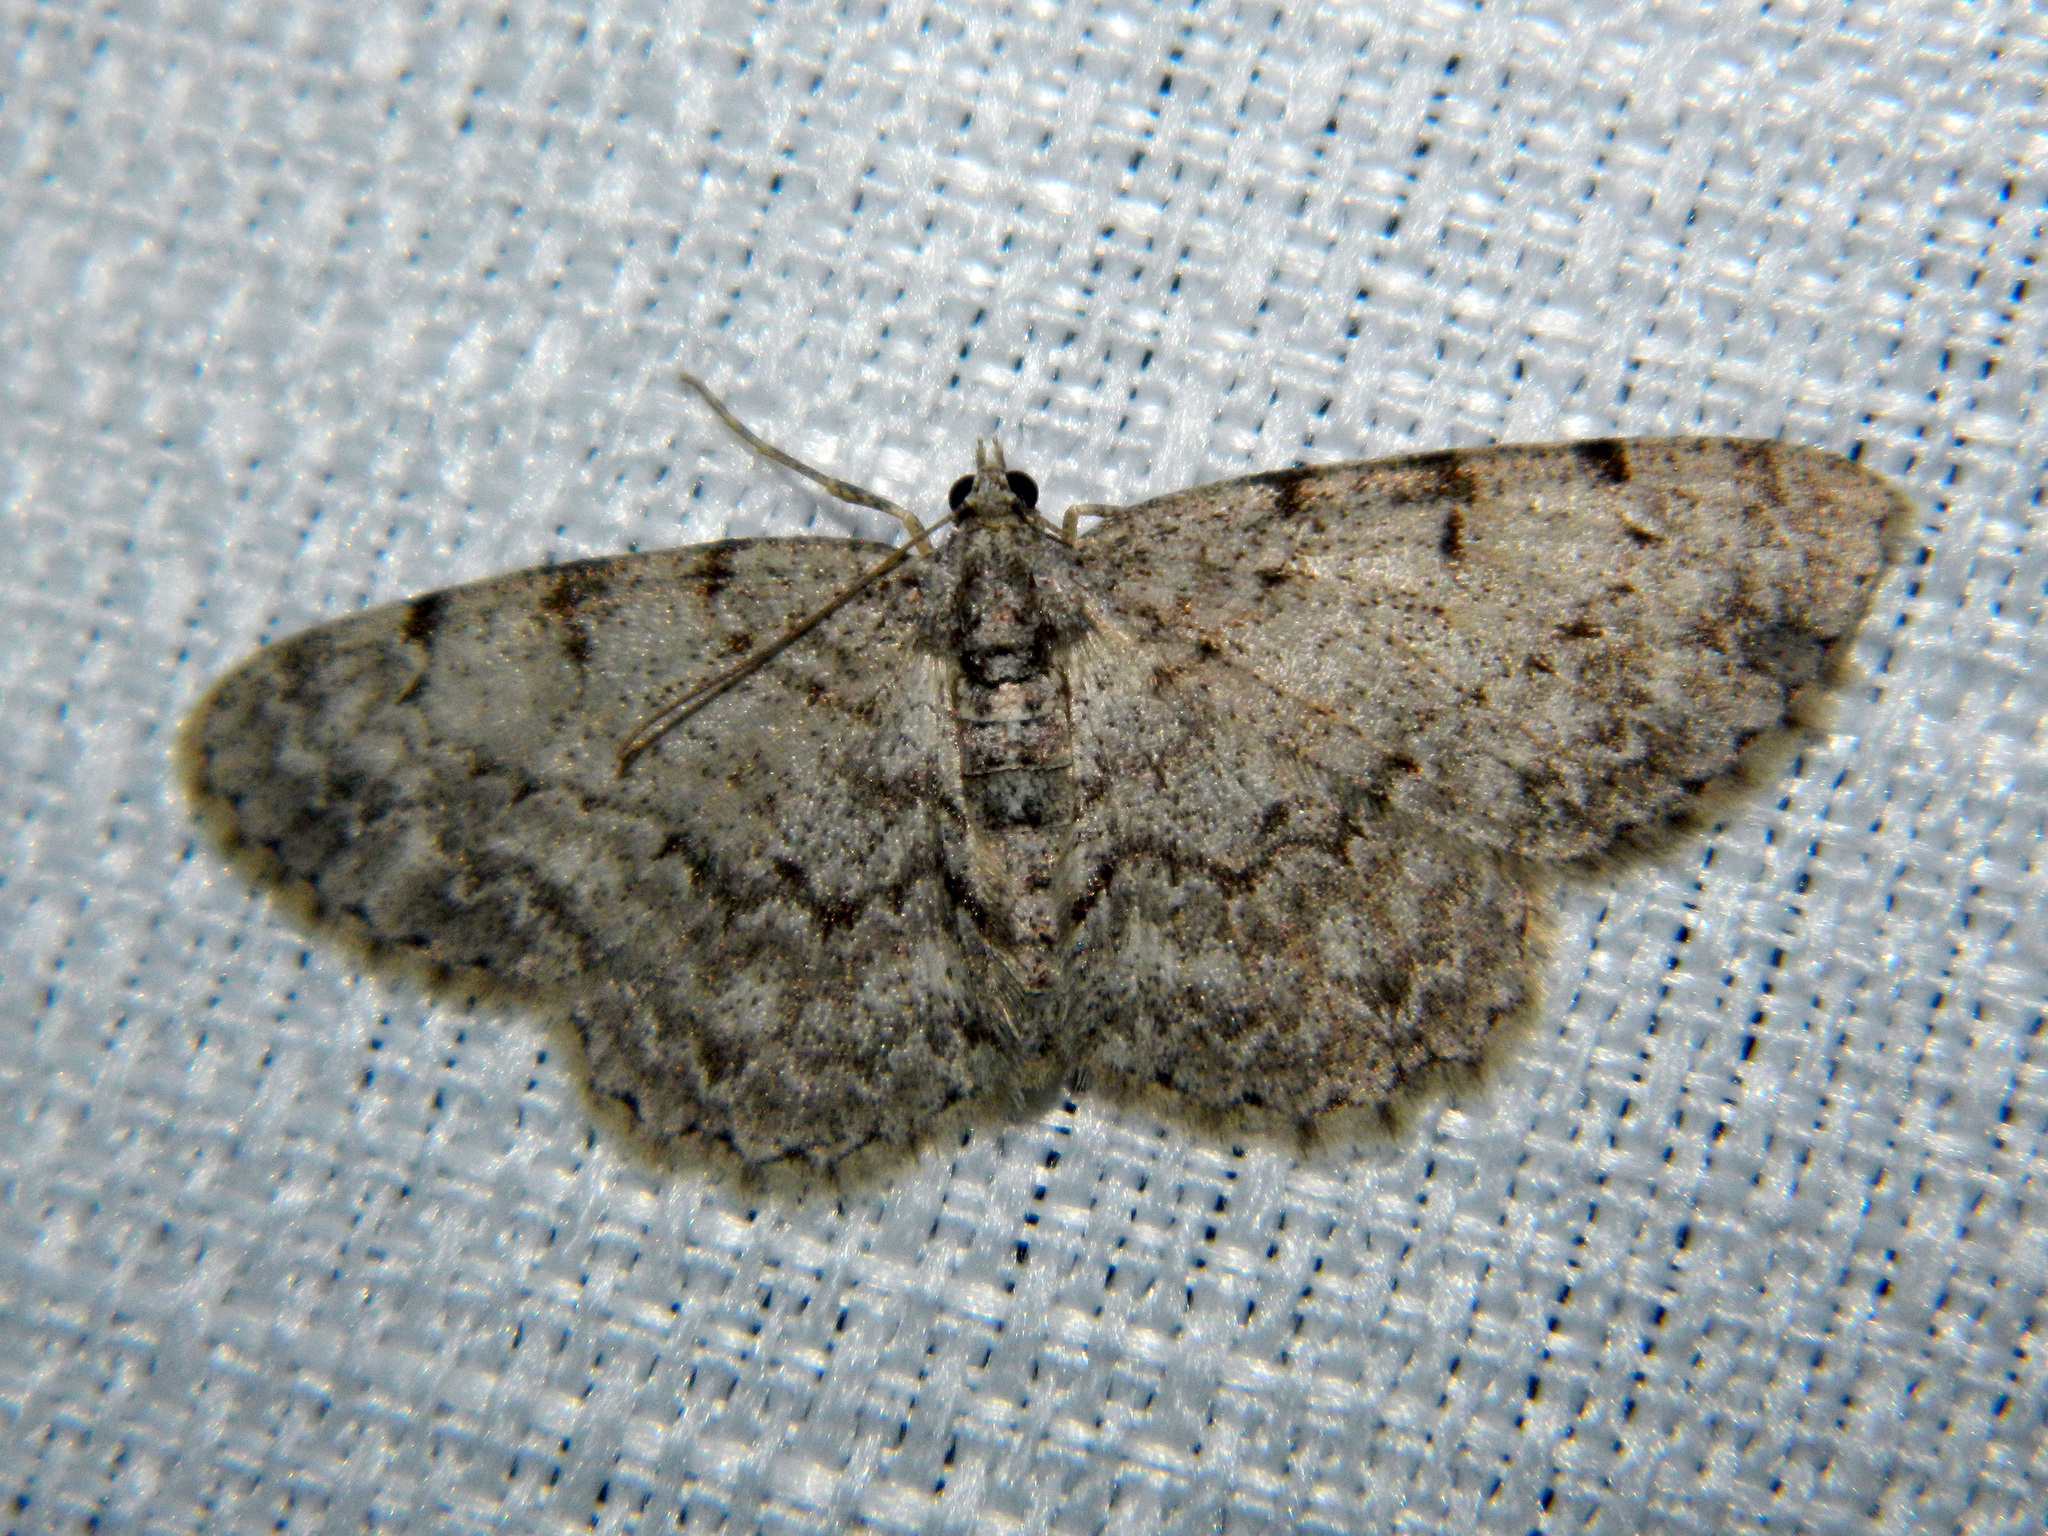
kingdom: Animalia
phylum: Arthropoda
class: Insecta
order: Lepidoptera
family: Geometridae
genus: Protoboarmia
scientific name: Protoboarmia porcelaria
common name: Porcelain gray
